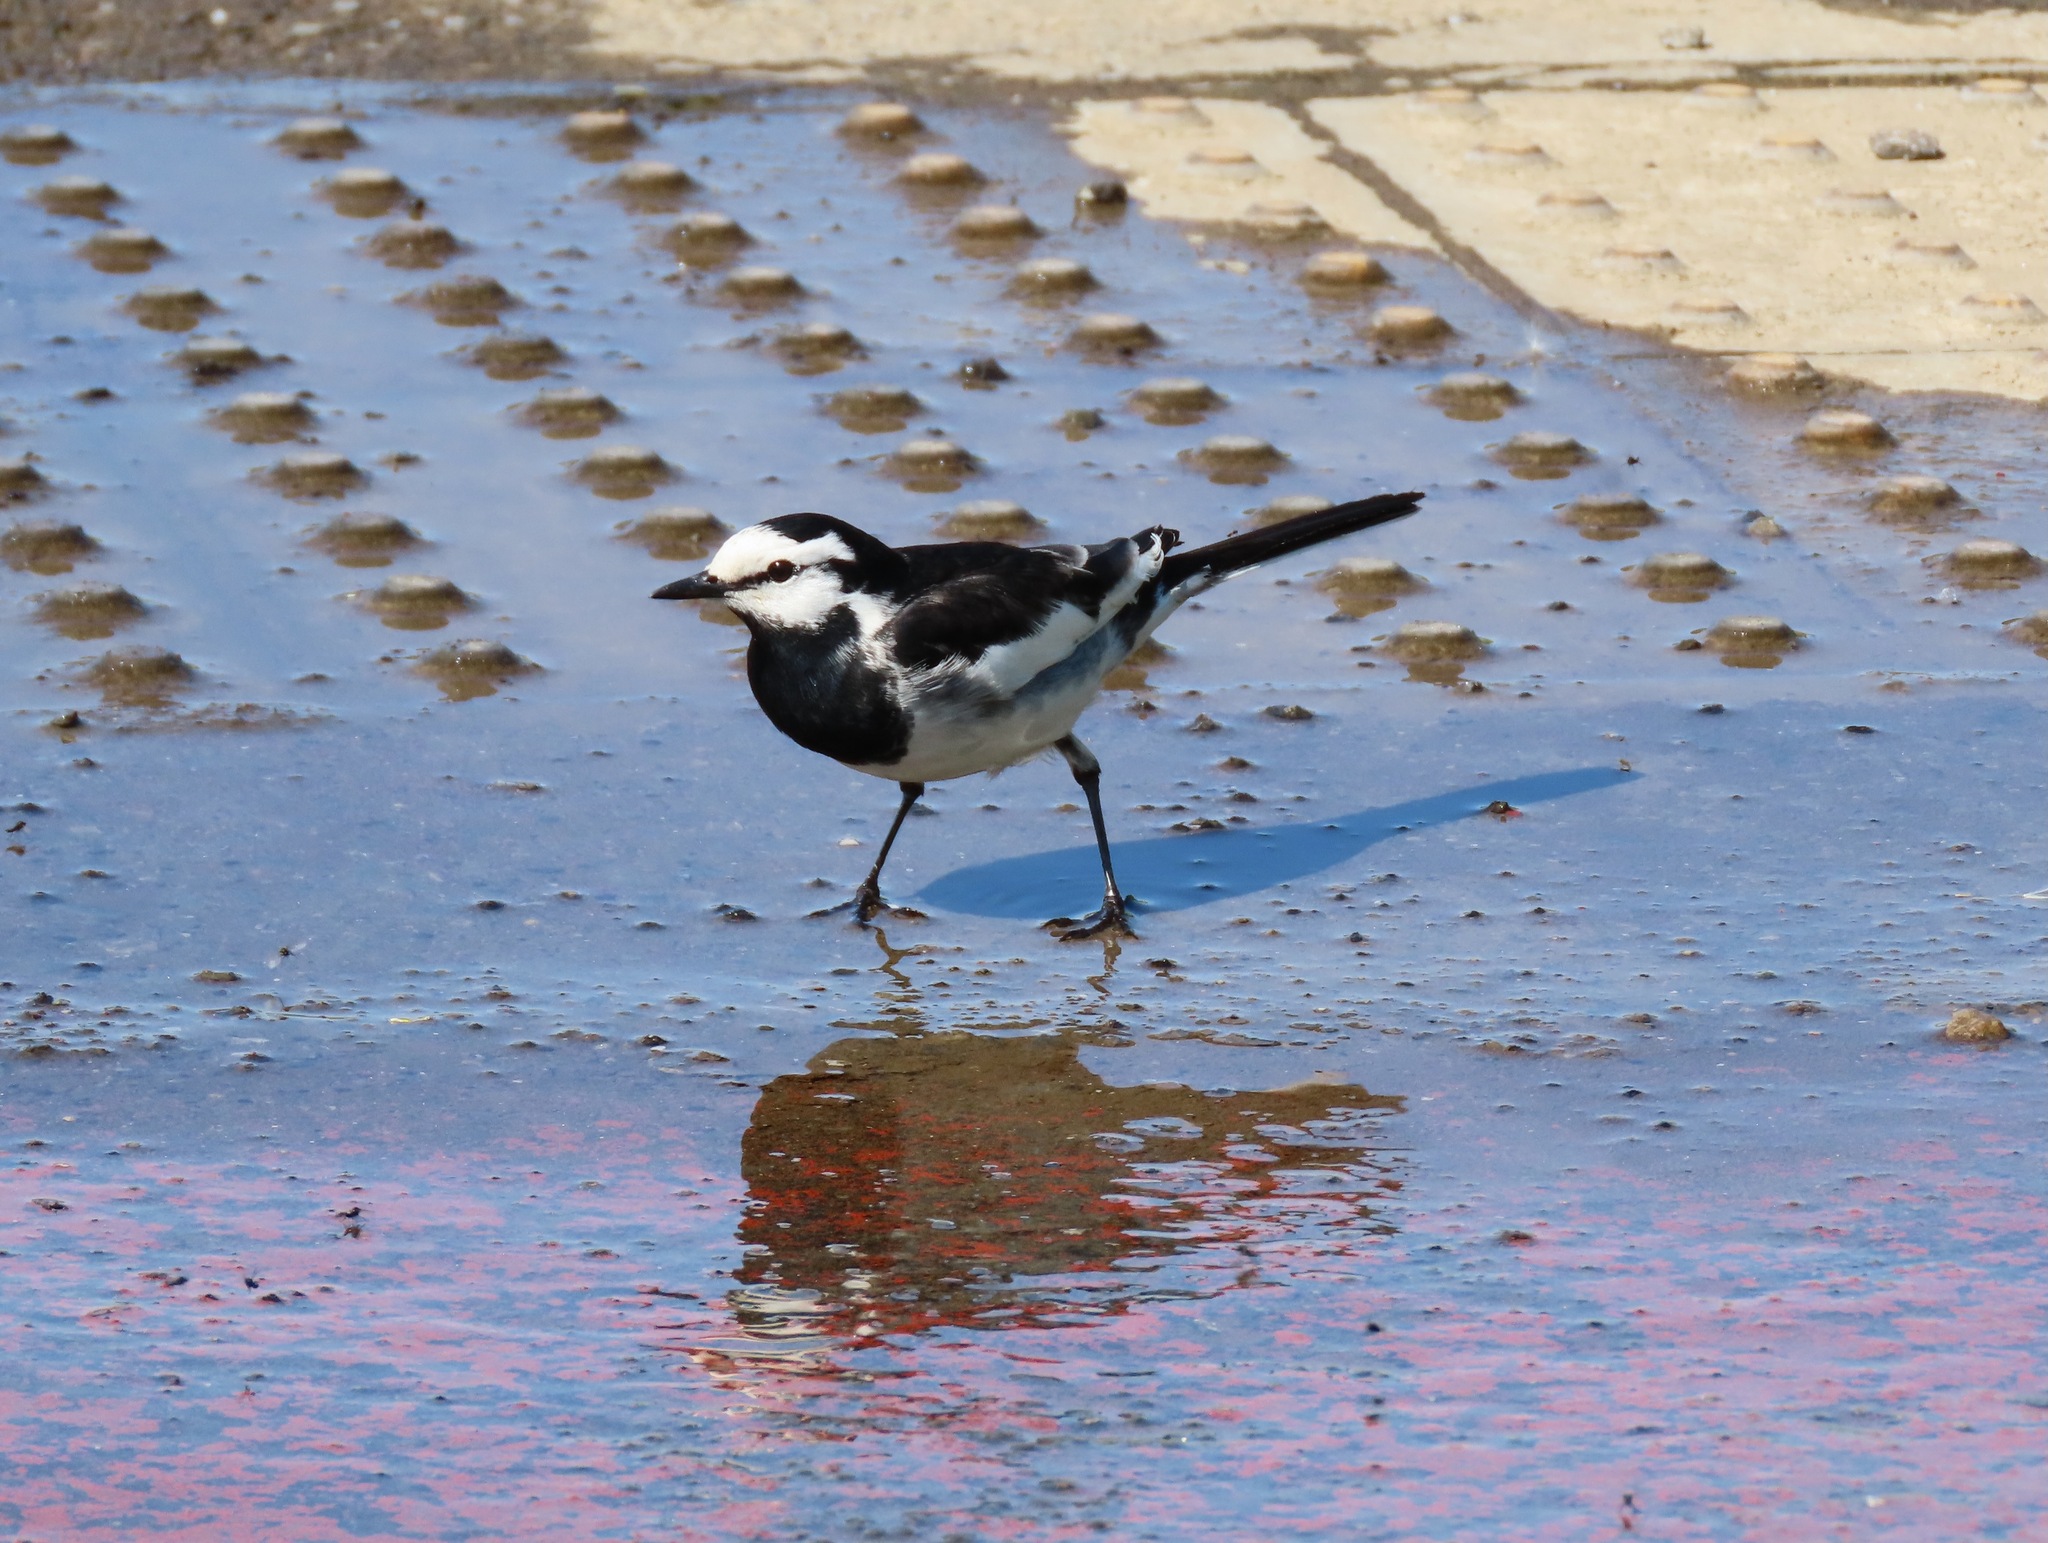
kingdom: Animalia
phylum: Chordata
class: Aves
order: Passeriformes
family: Motacillidae
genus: Motacilla
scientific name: Motacilla alba
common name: White wagtail
